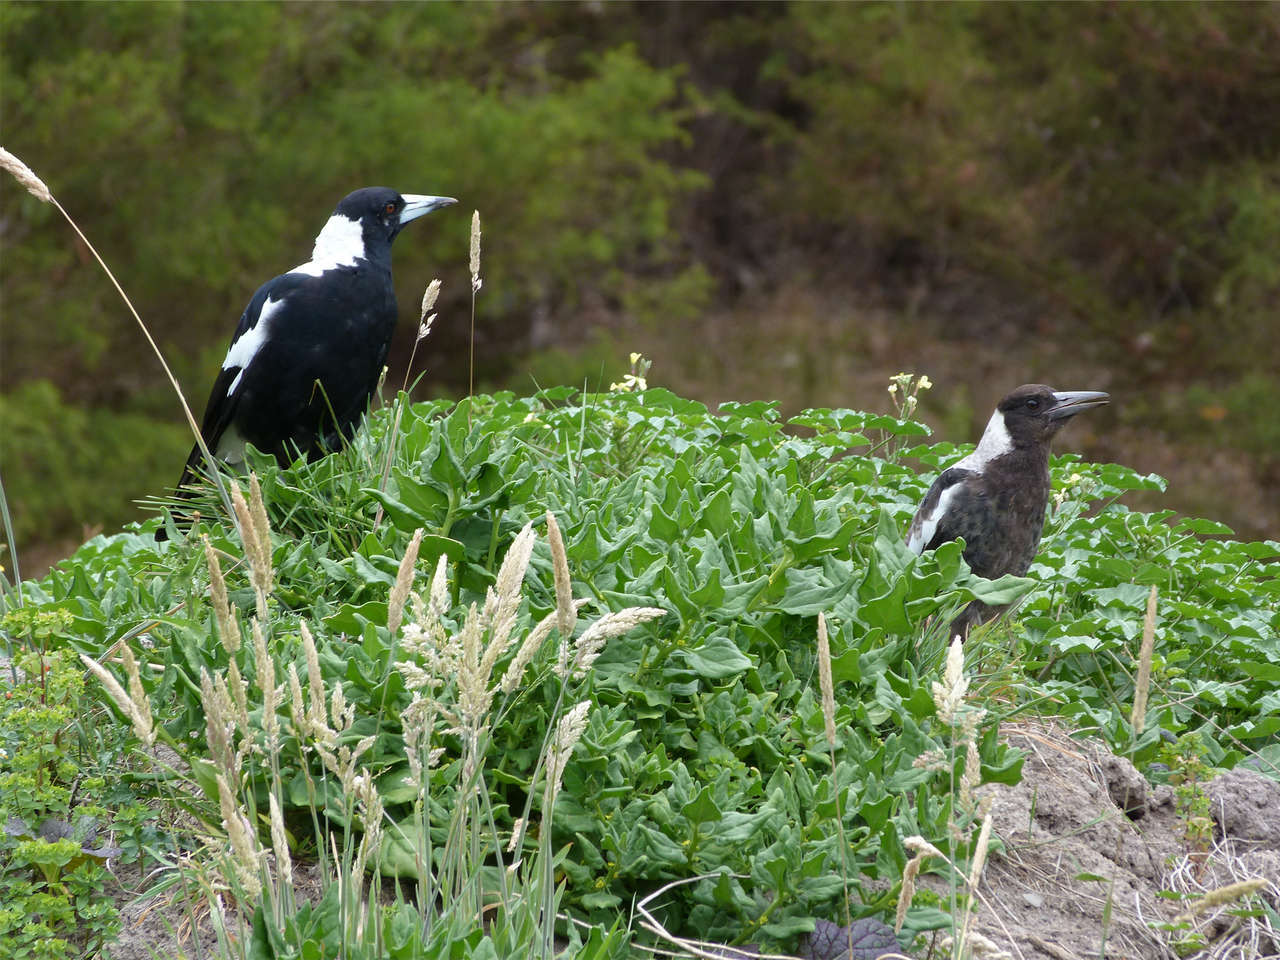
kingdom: Animalia
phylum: Chordata
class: Aves
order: Passeriformes
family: Cracticidae
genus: Gymnorhina
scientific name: Gymnorhina tibicen
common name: Australian magpie
